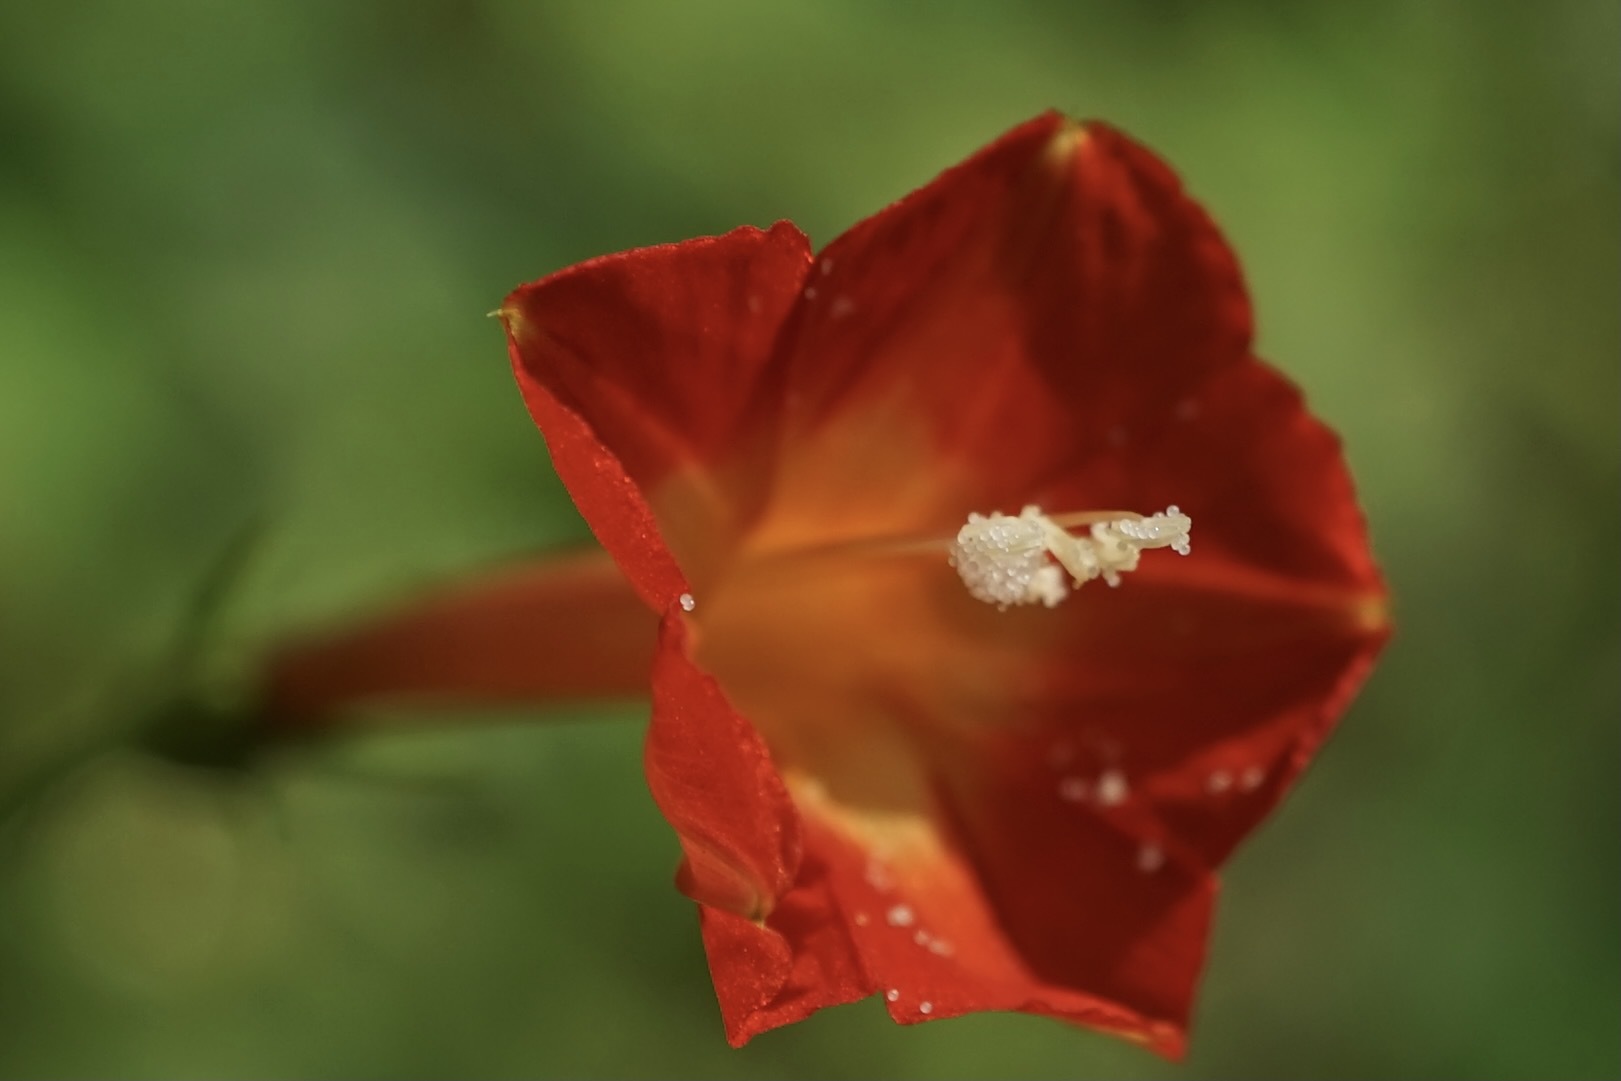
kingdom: Plantae
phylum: Tracheophyta
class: Magnoliopsida
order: Solanales
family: Convolvulaceae
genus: Ipomoea
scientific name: Ipomoea coccinea
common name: Red morning-glory
